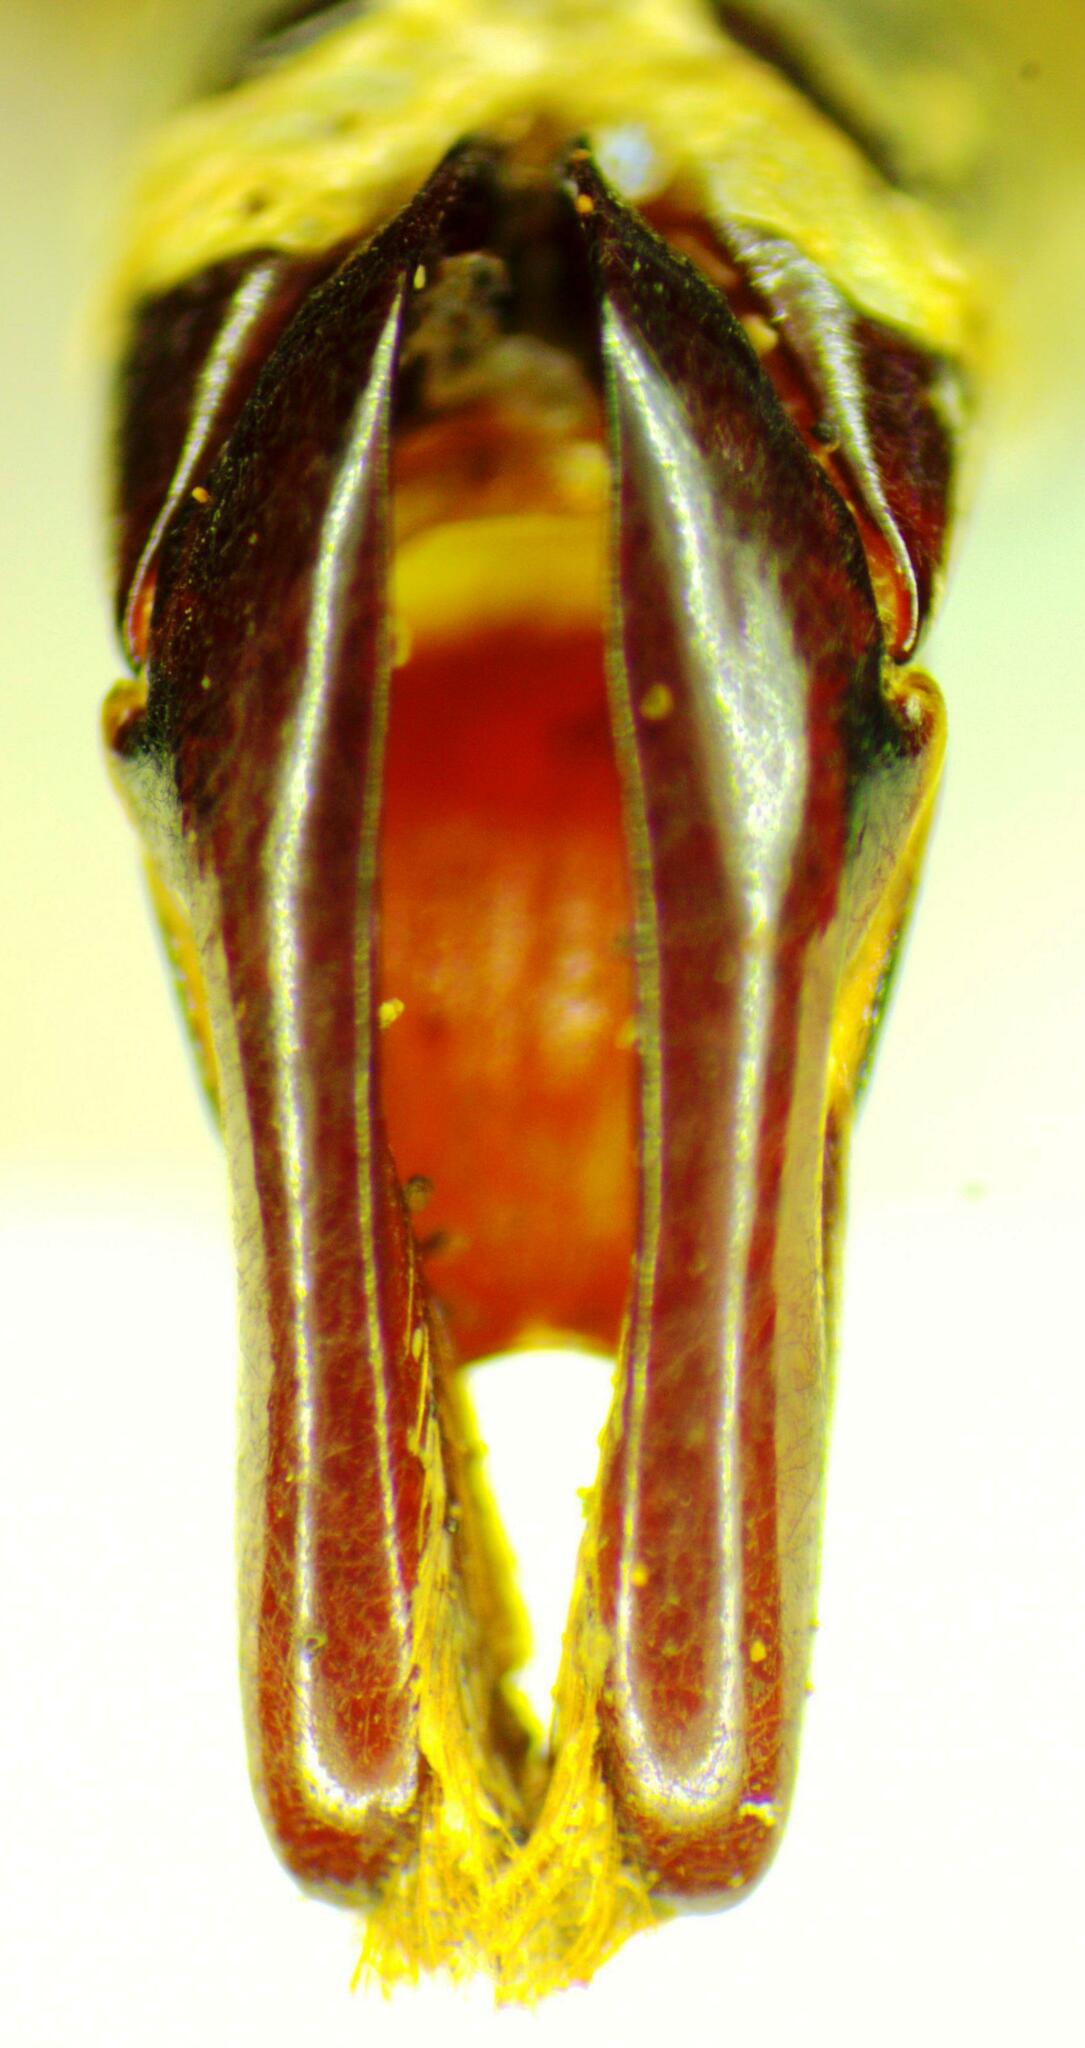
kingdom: Animalia
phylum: Arthropoda
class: Insecta
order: Coleoptera
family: Scarabaeidae
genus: Podischnus
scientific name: Podischnus agenor
